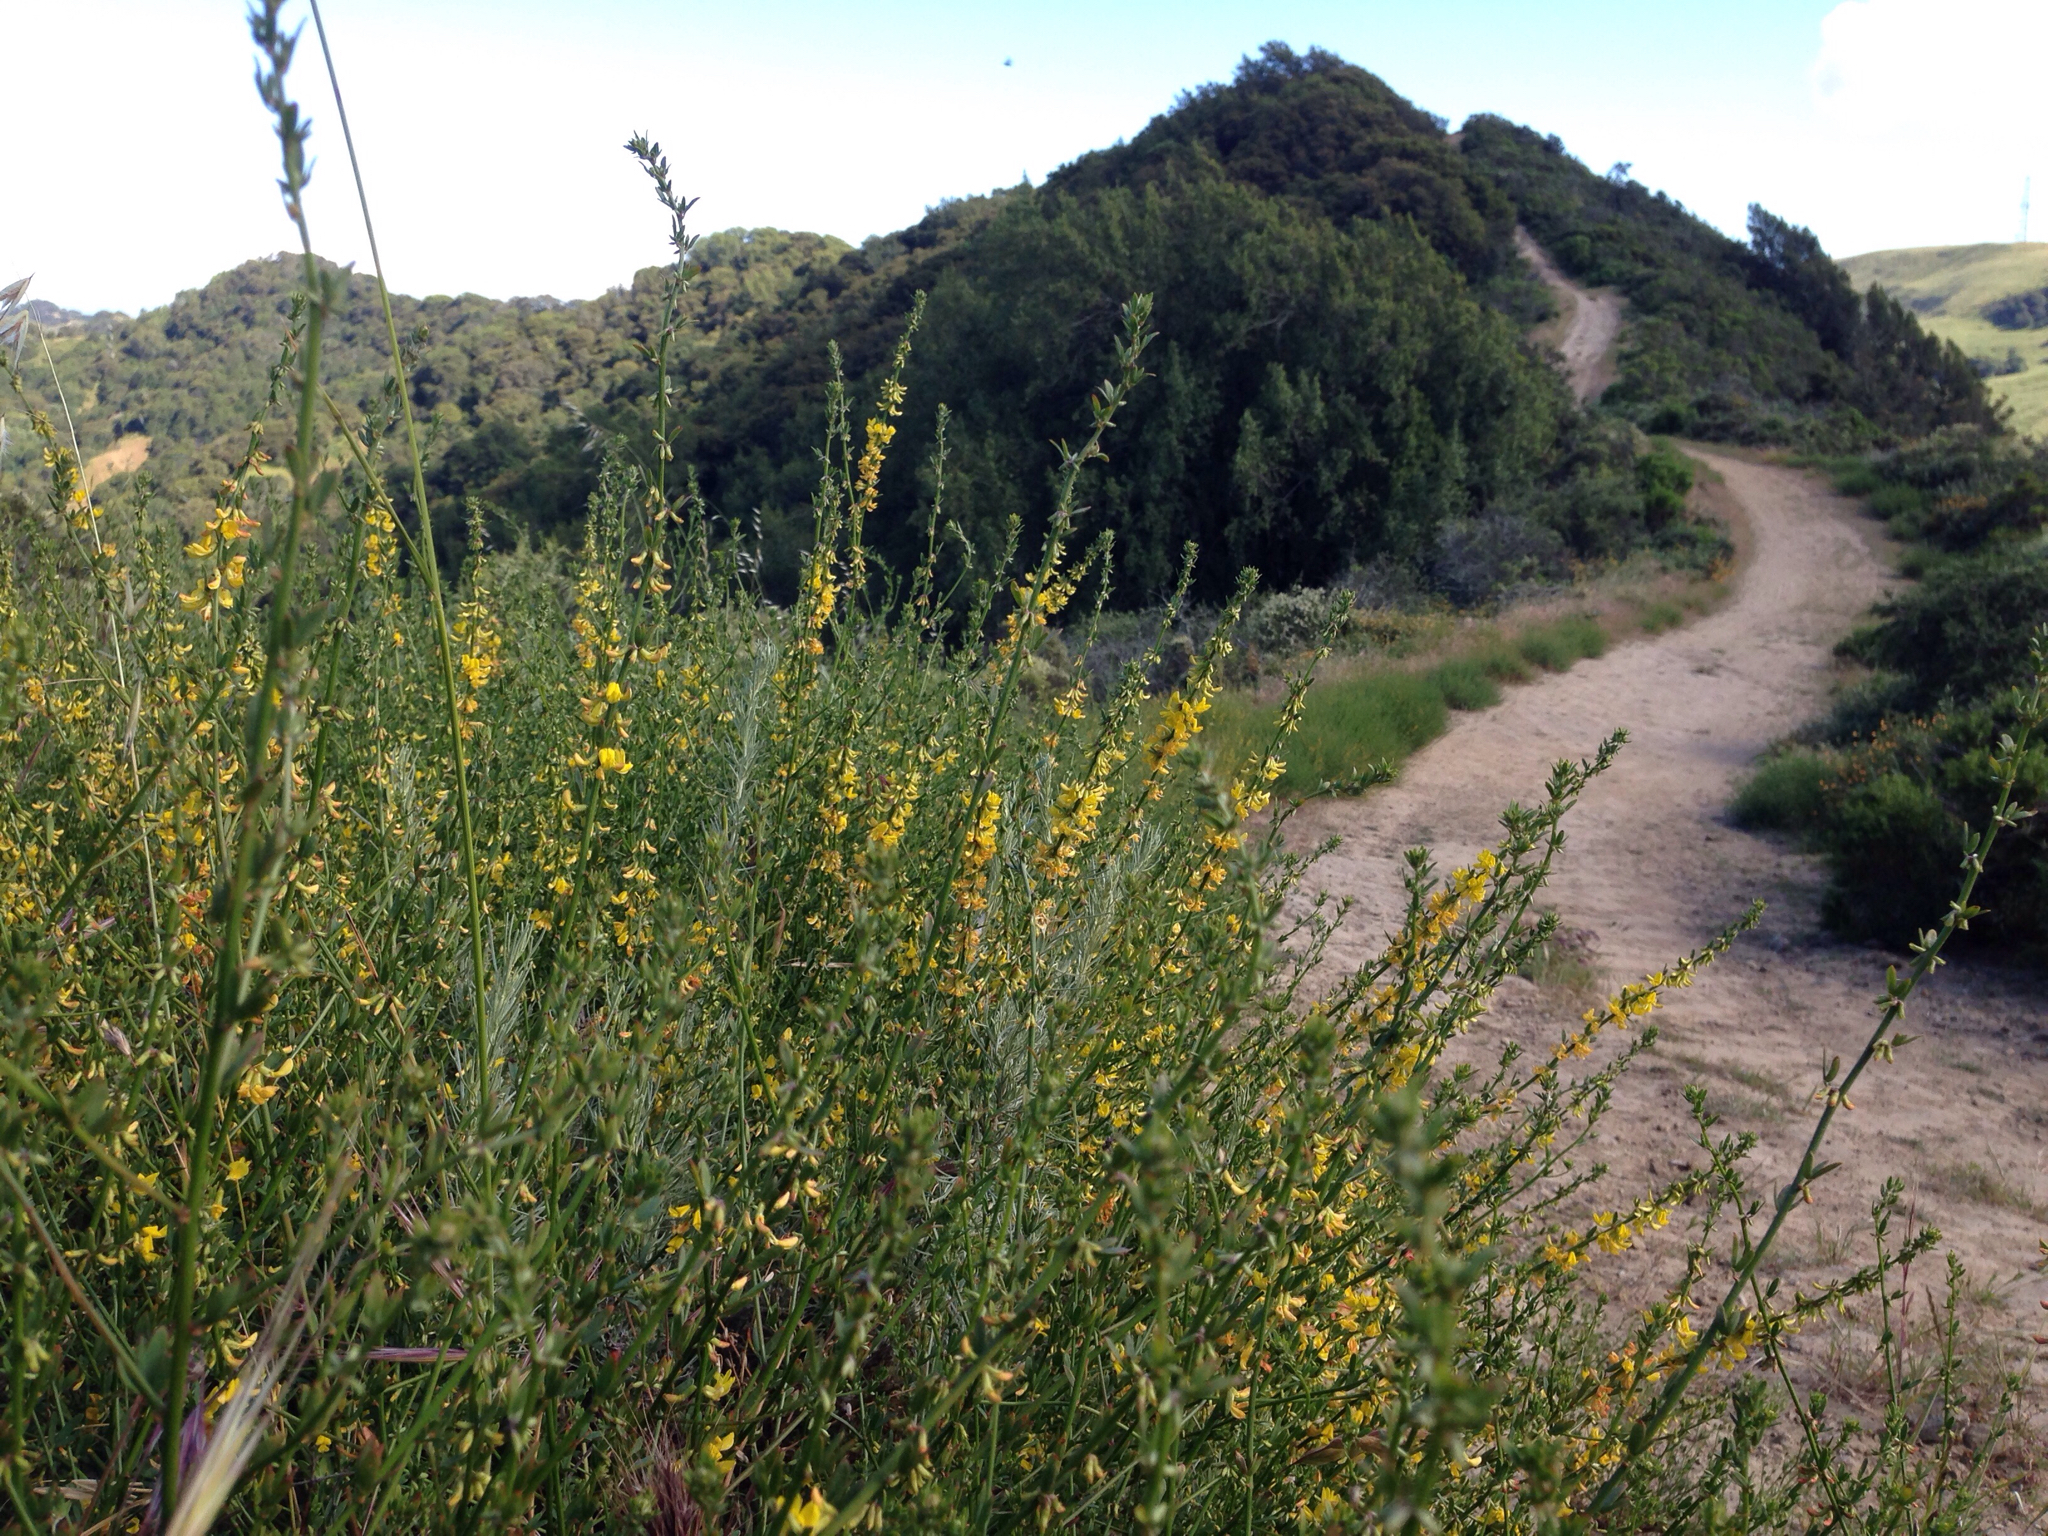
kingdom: Plantae
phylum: Tracheophyta
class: Magnoliopsida
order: Fabales
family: Fabaceae
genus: Acmispon
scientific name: Acmispon glaber
